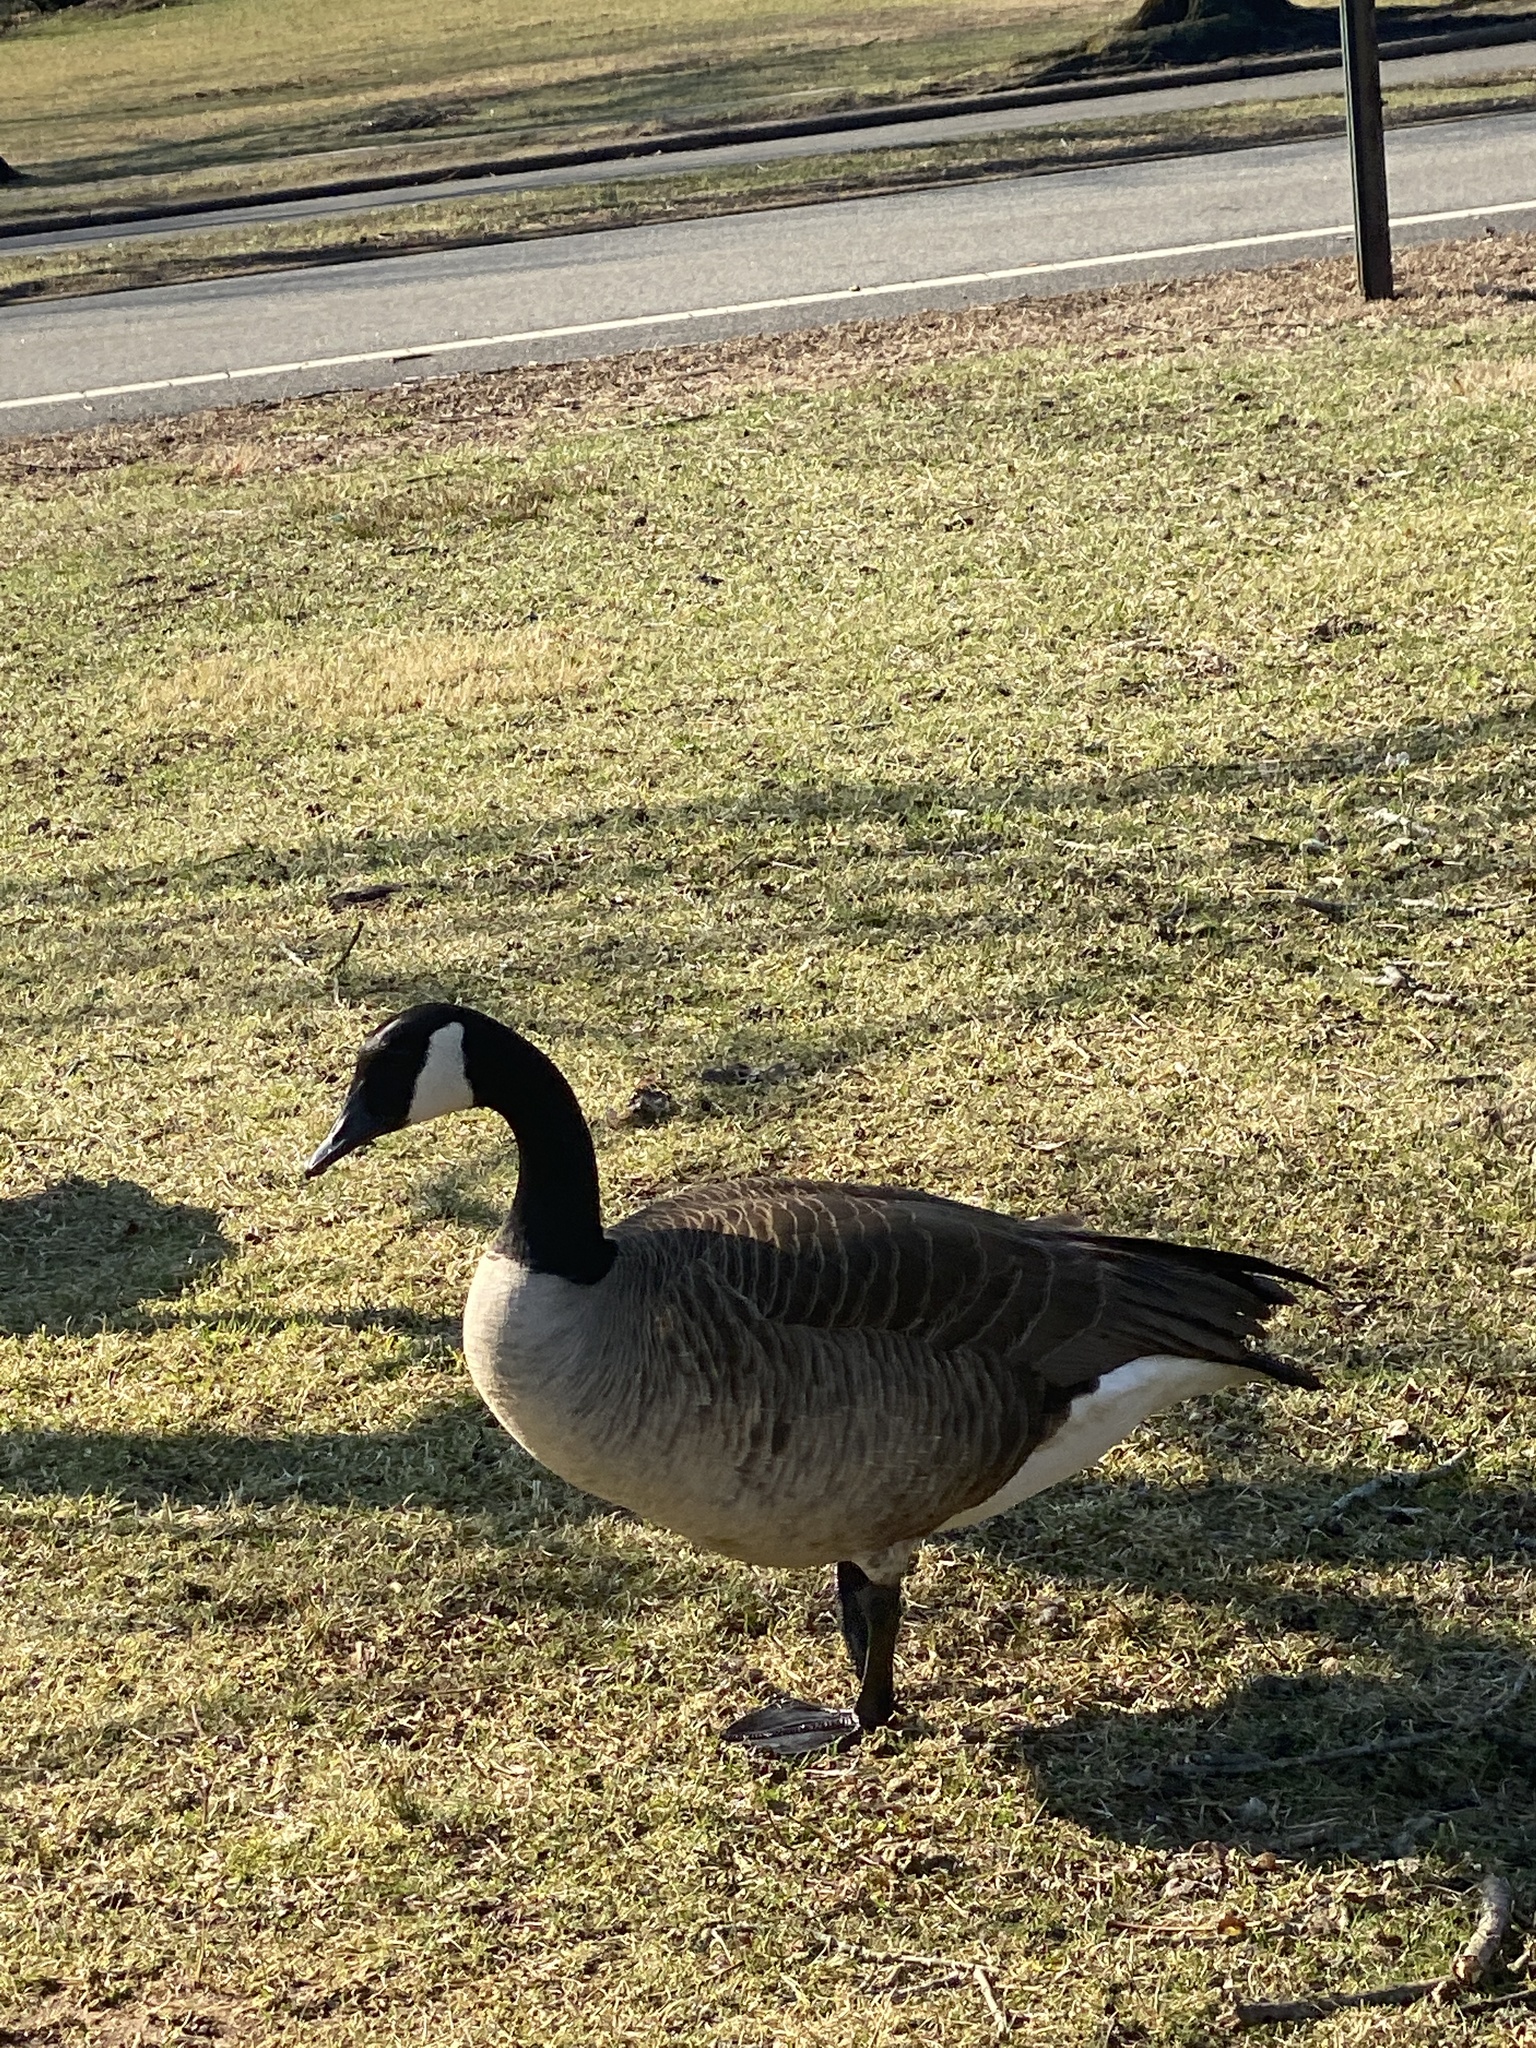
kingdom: Animalia
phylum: Chordata
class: Aves
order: Anseriformes
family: Anatidae
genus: Branta
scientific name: Branta canadensis
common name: Canada goose
